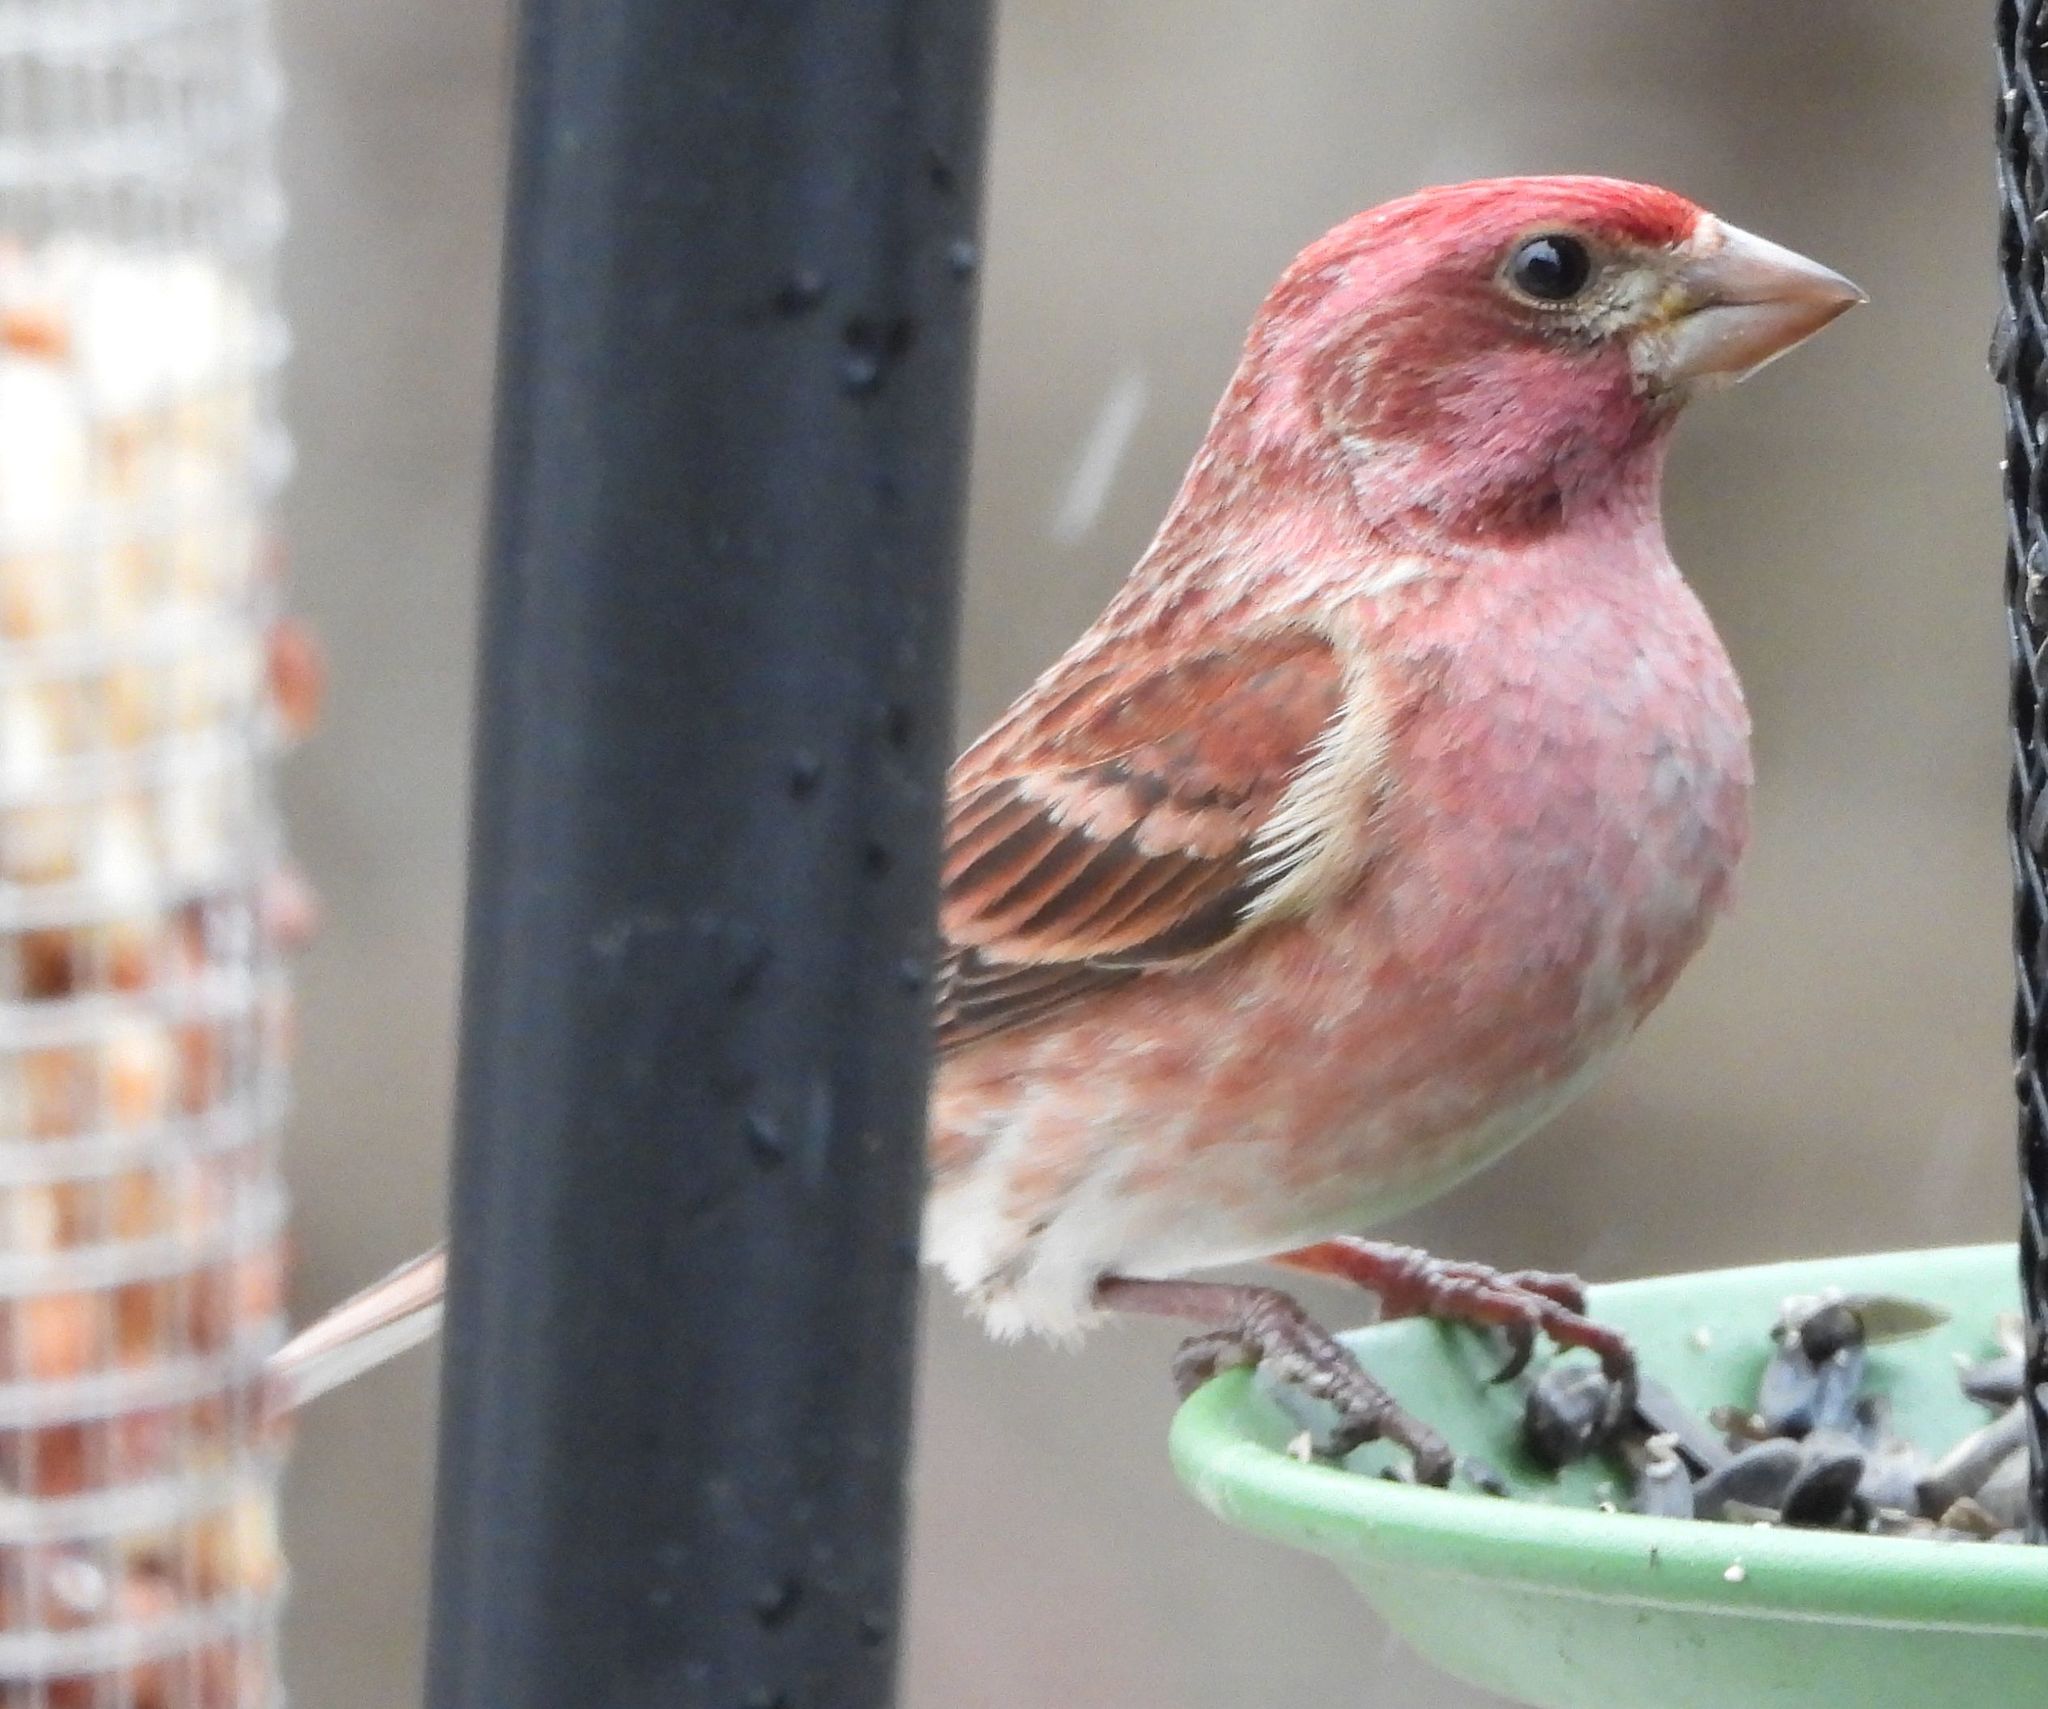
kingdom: Animalia
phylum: Chordata
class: Aves
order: Passeriformes
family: Fringillidae
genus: Haemorhous
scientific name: Haemorhous purpureus
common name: Purple finch
